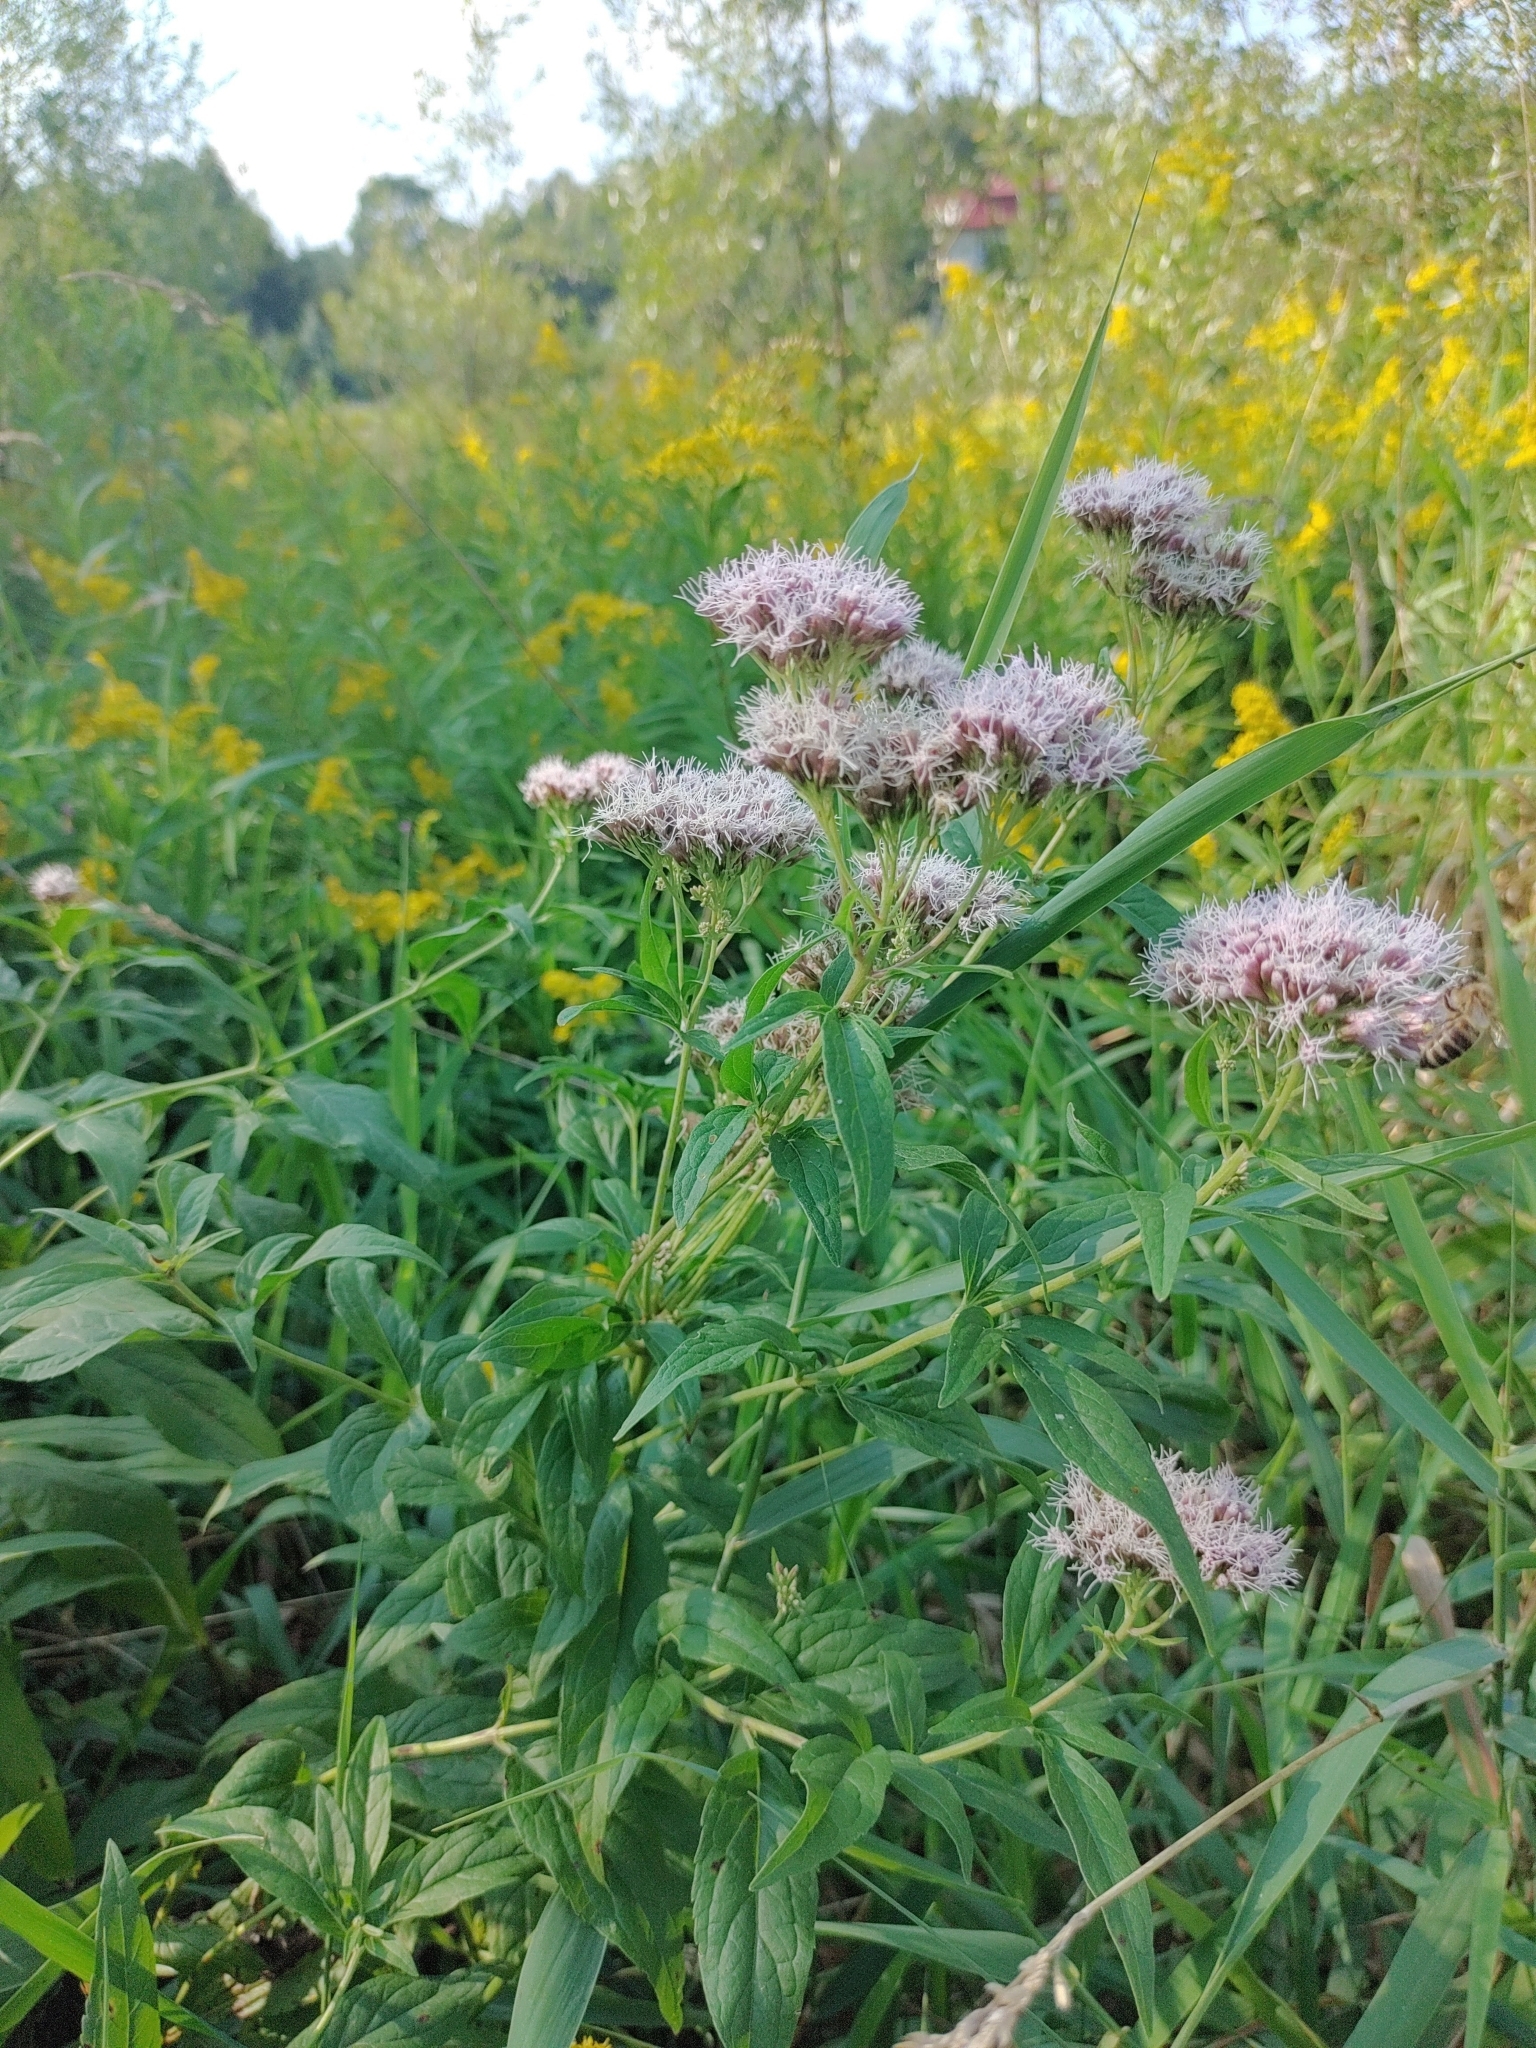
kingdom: Plantae
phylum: Tracheophyta
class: Magnoliopsida
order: Asterales
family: Asteraceae
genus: Eupatorium
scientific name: Eupatorium cannabinum
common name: Hemp-agrimony
